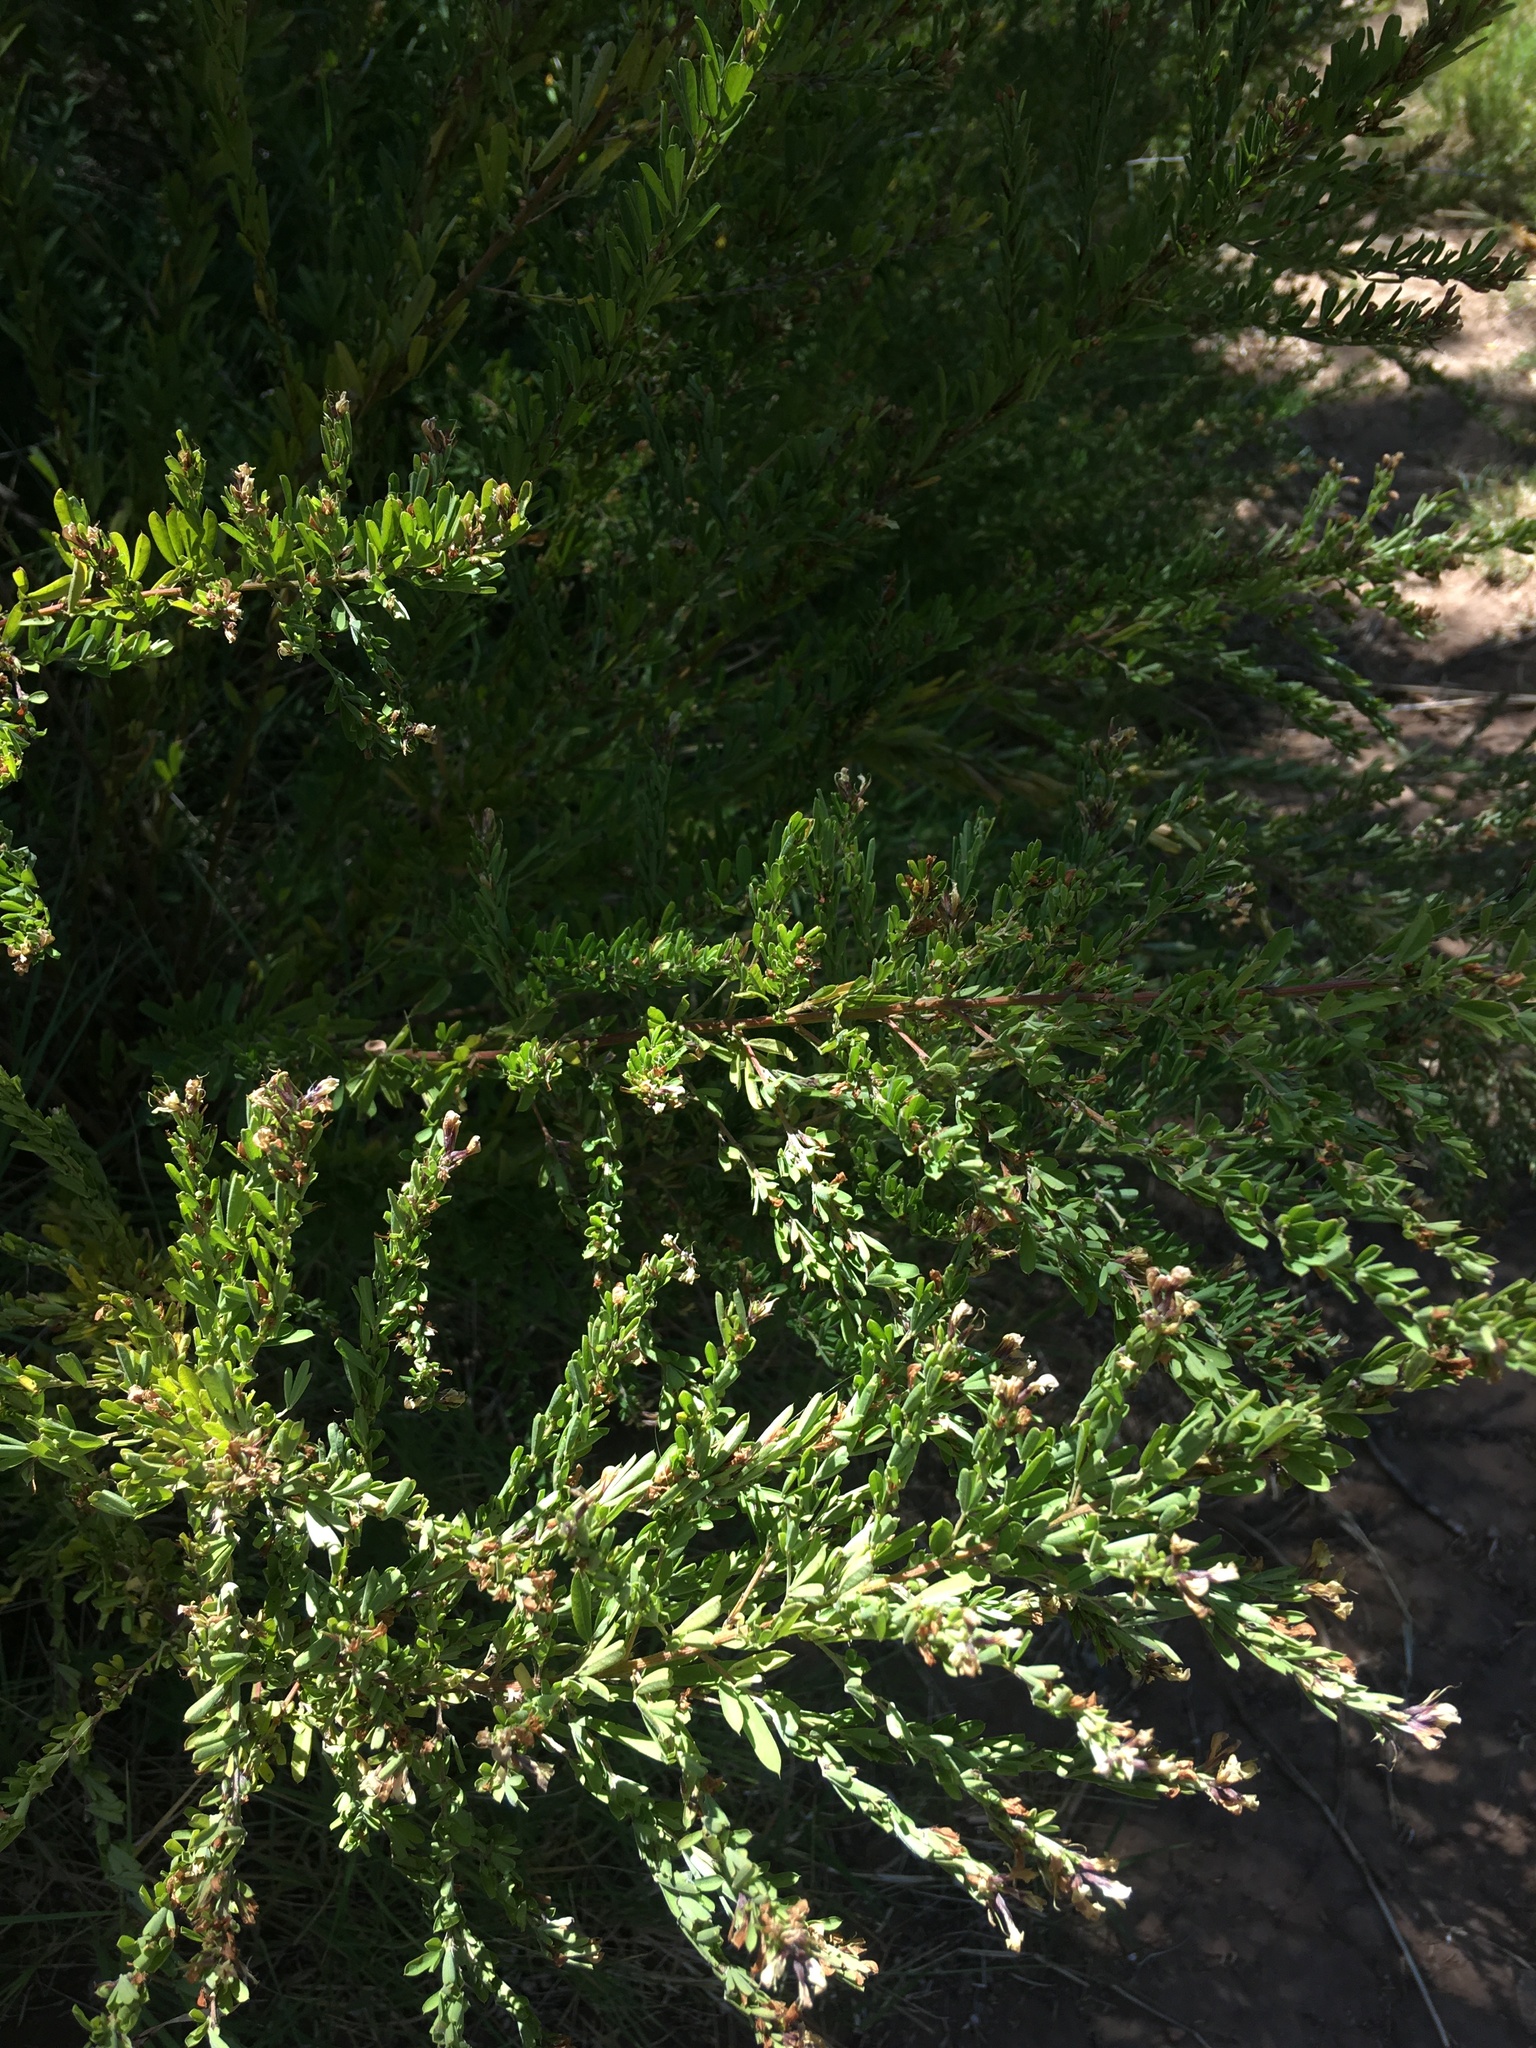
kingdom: Plantae
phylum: Tracheophyta
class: Magnoliopsida
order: Fabales
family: Fabaceae
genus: Lespedeza
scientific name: Lespedeza cuneata
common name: Chinese bush-clover
